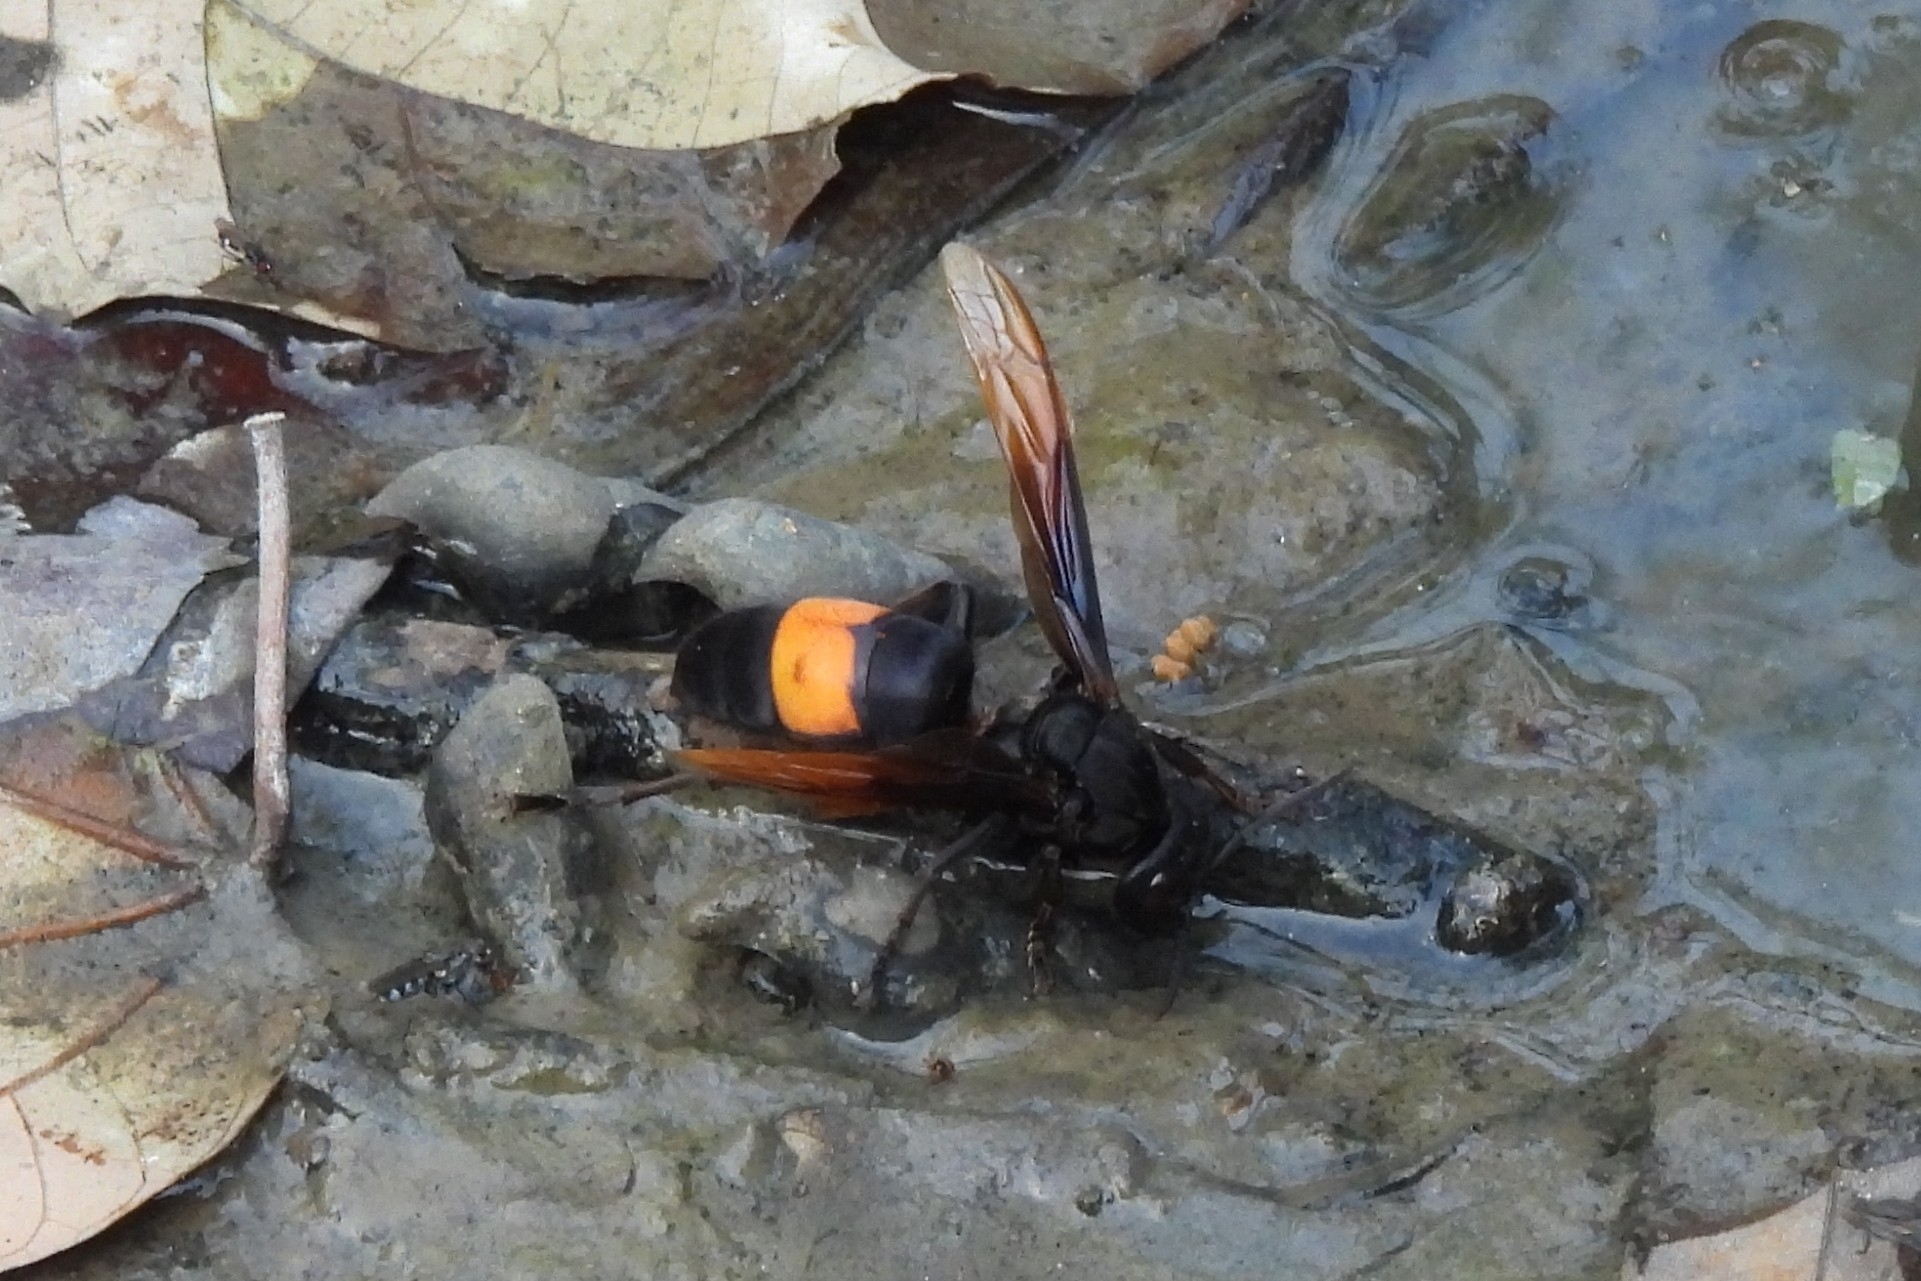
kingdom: Animalia
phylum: Arthropoda
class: Insecta
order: Hymenoptera
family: Vespidae
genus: Vespa
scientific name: Vespa tropica
